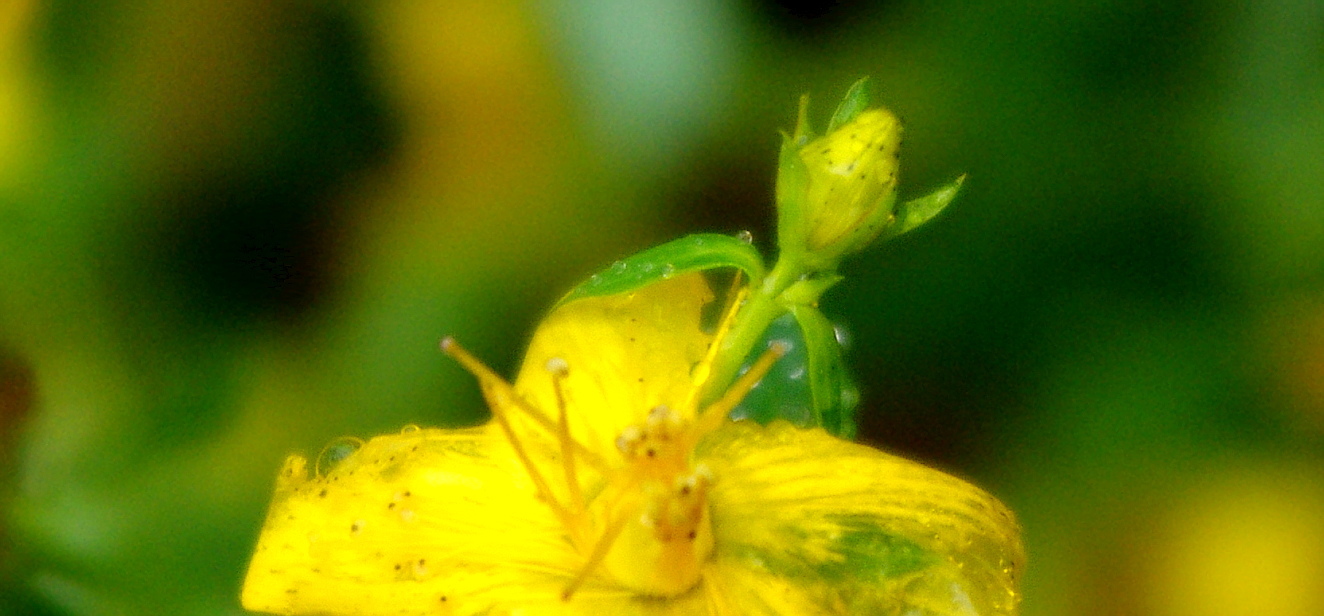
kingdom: Plantae
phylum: Tracheophyta
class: Magnoliopsida
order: Malpighiales
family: Hypericaceae
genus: Hypericum
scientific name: Hypericum perforatum
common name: Common st. johnswort
